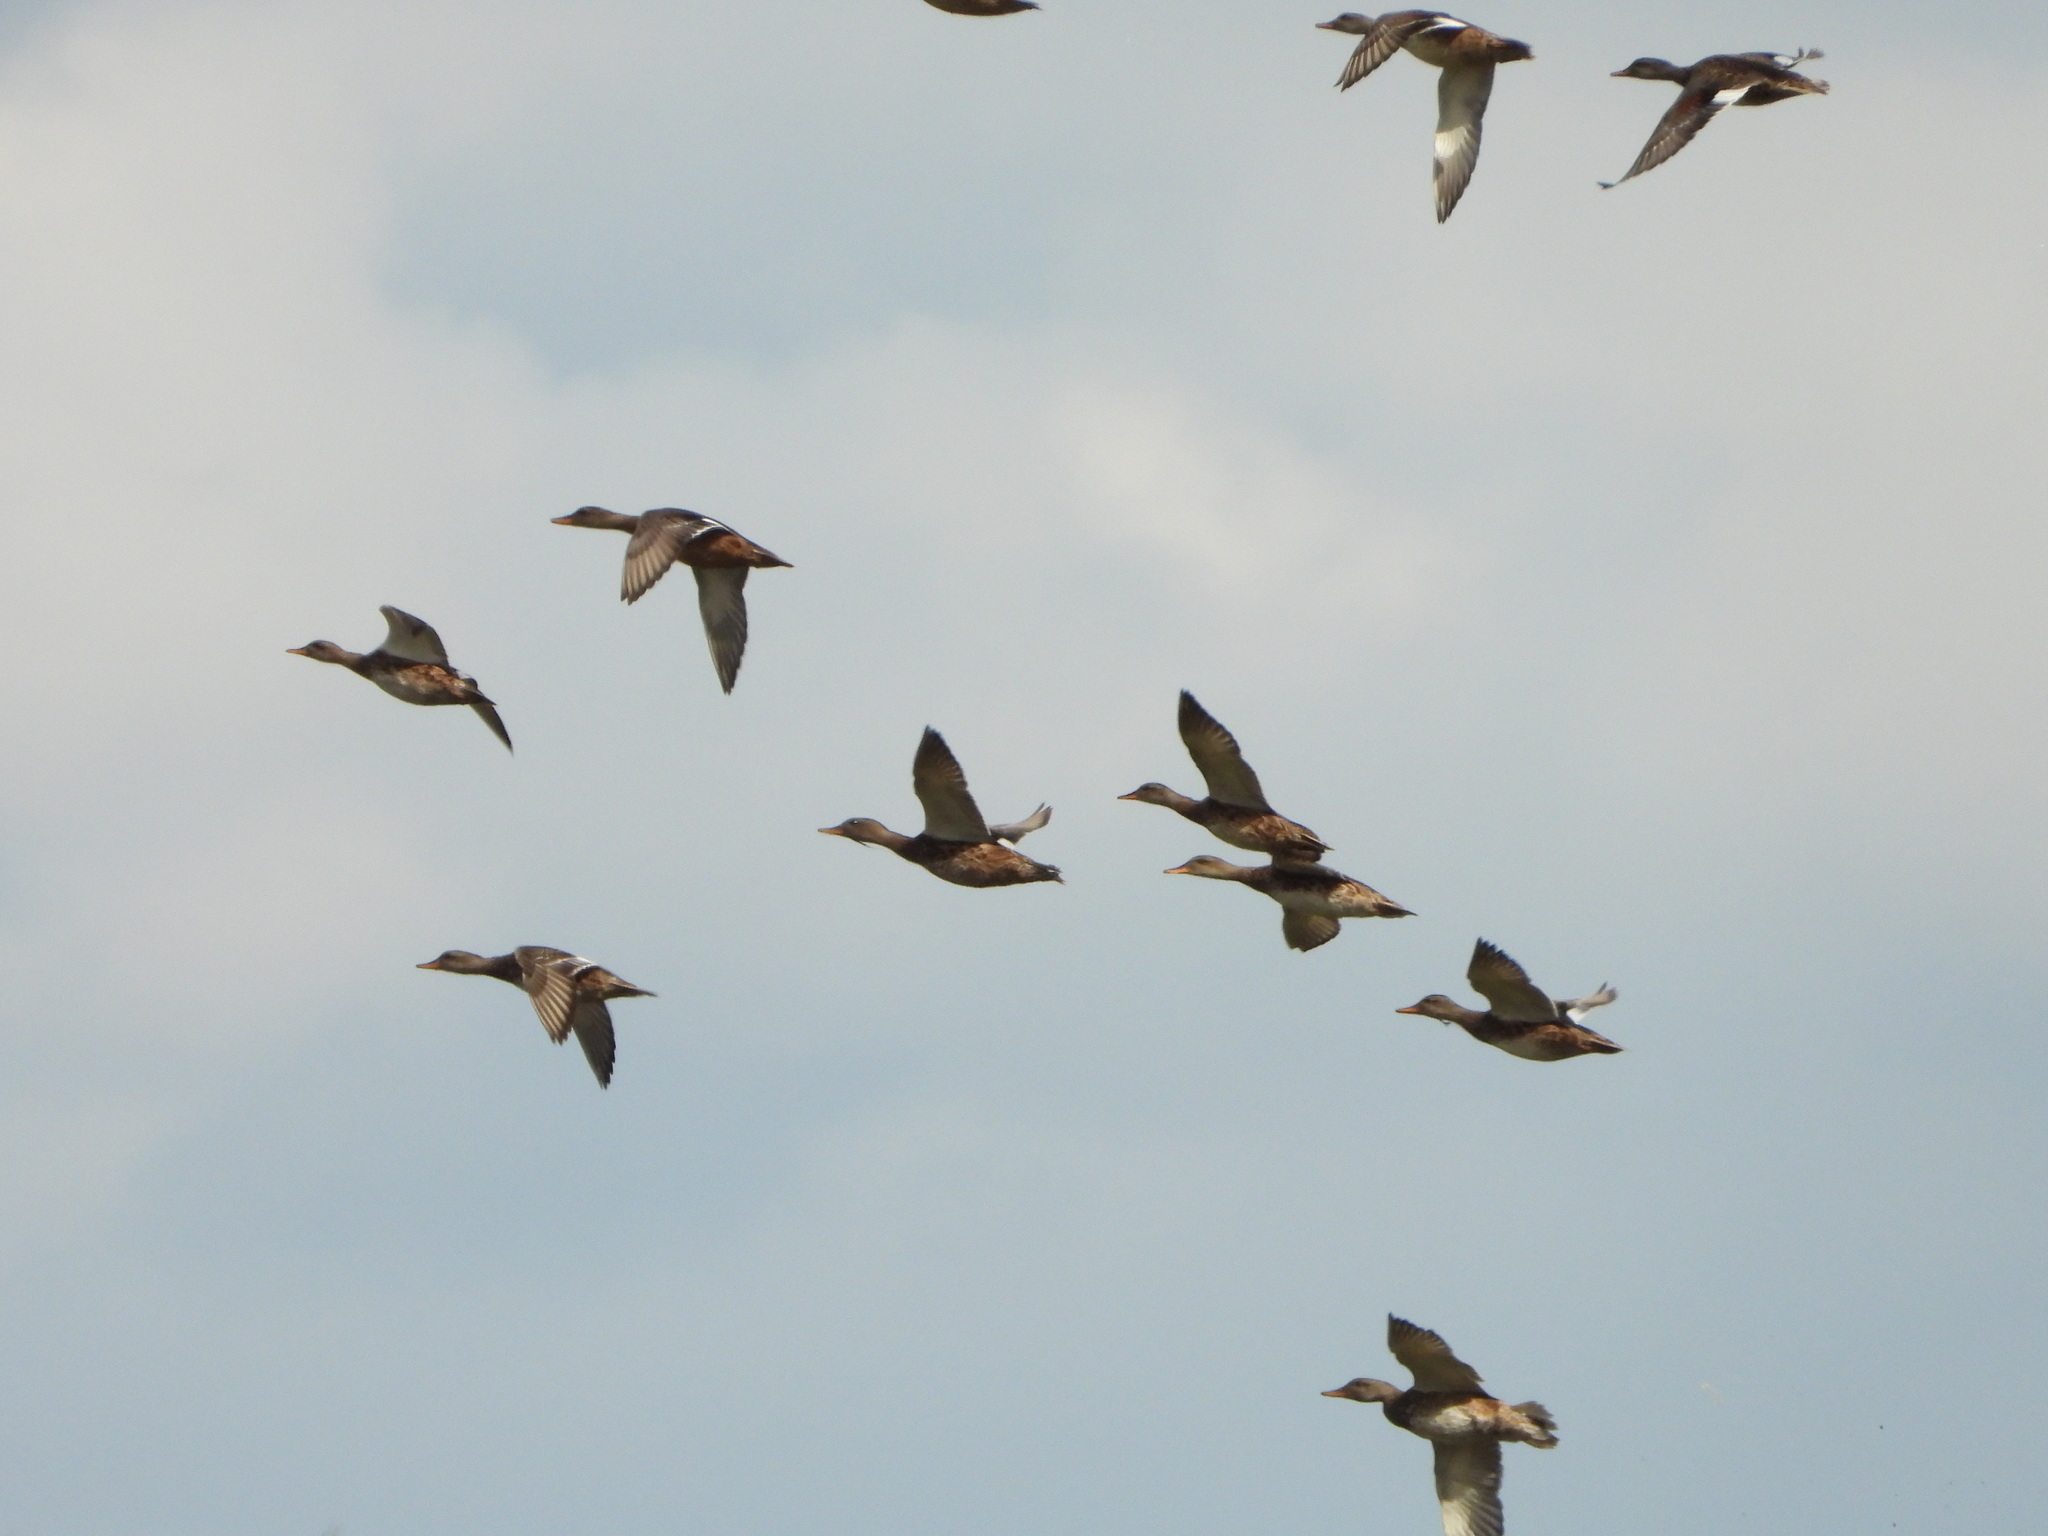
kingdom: Animalia
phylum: Chordata
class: Aves
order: Anseriformes
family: Anatidae
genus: Mareca
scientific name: Mareca strepera
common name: Gadwall
